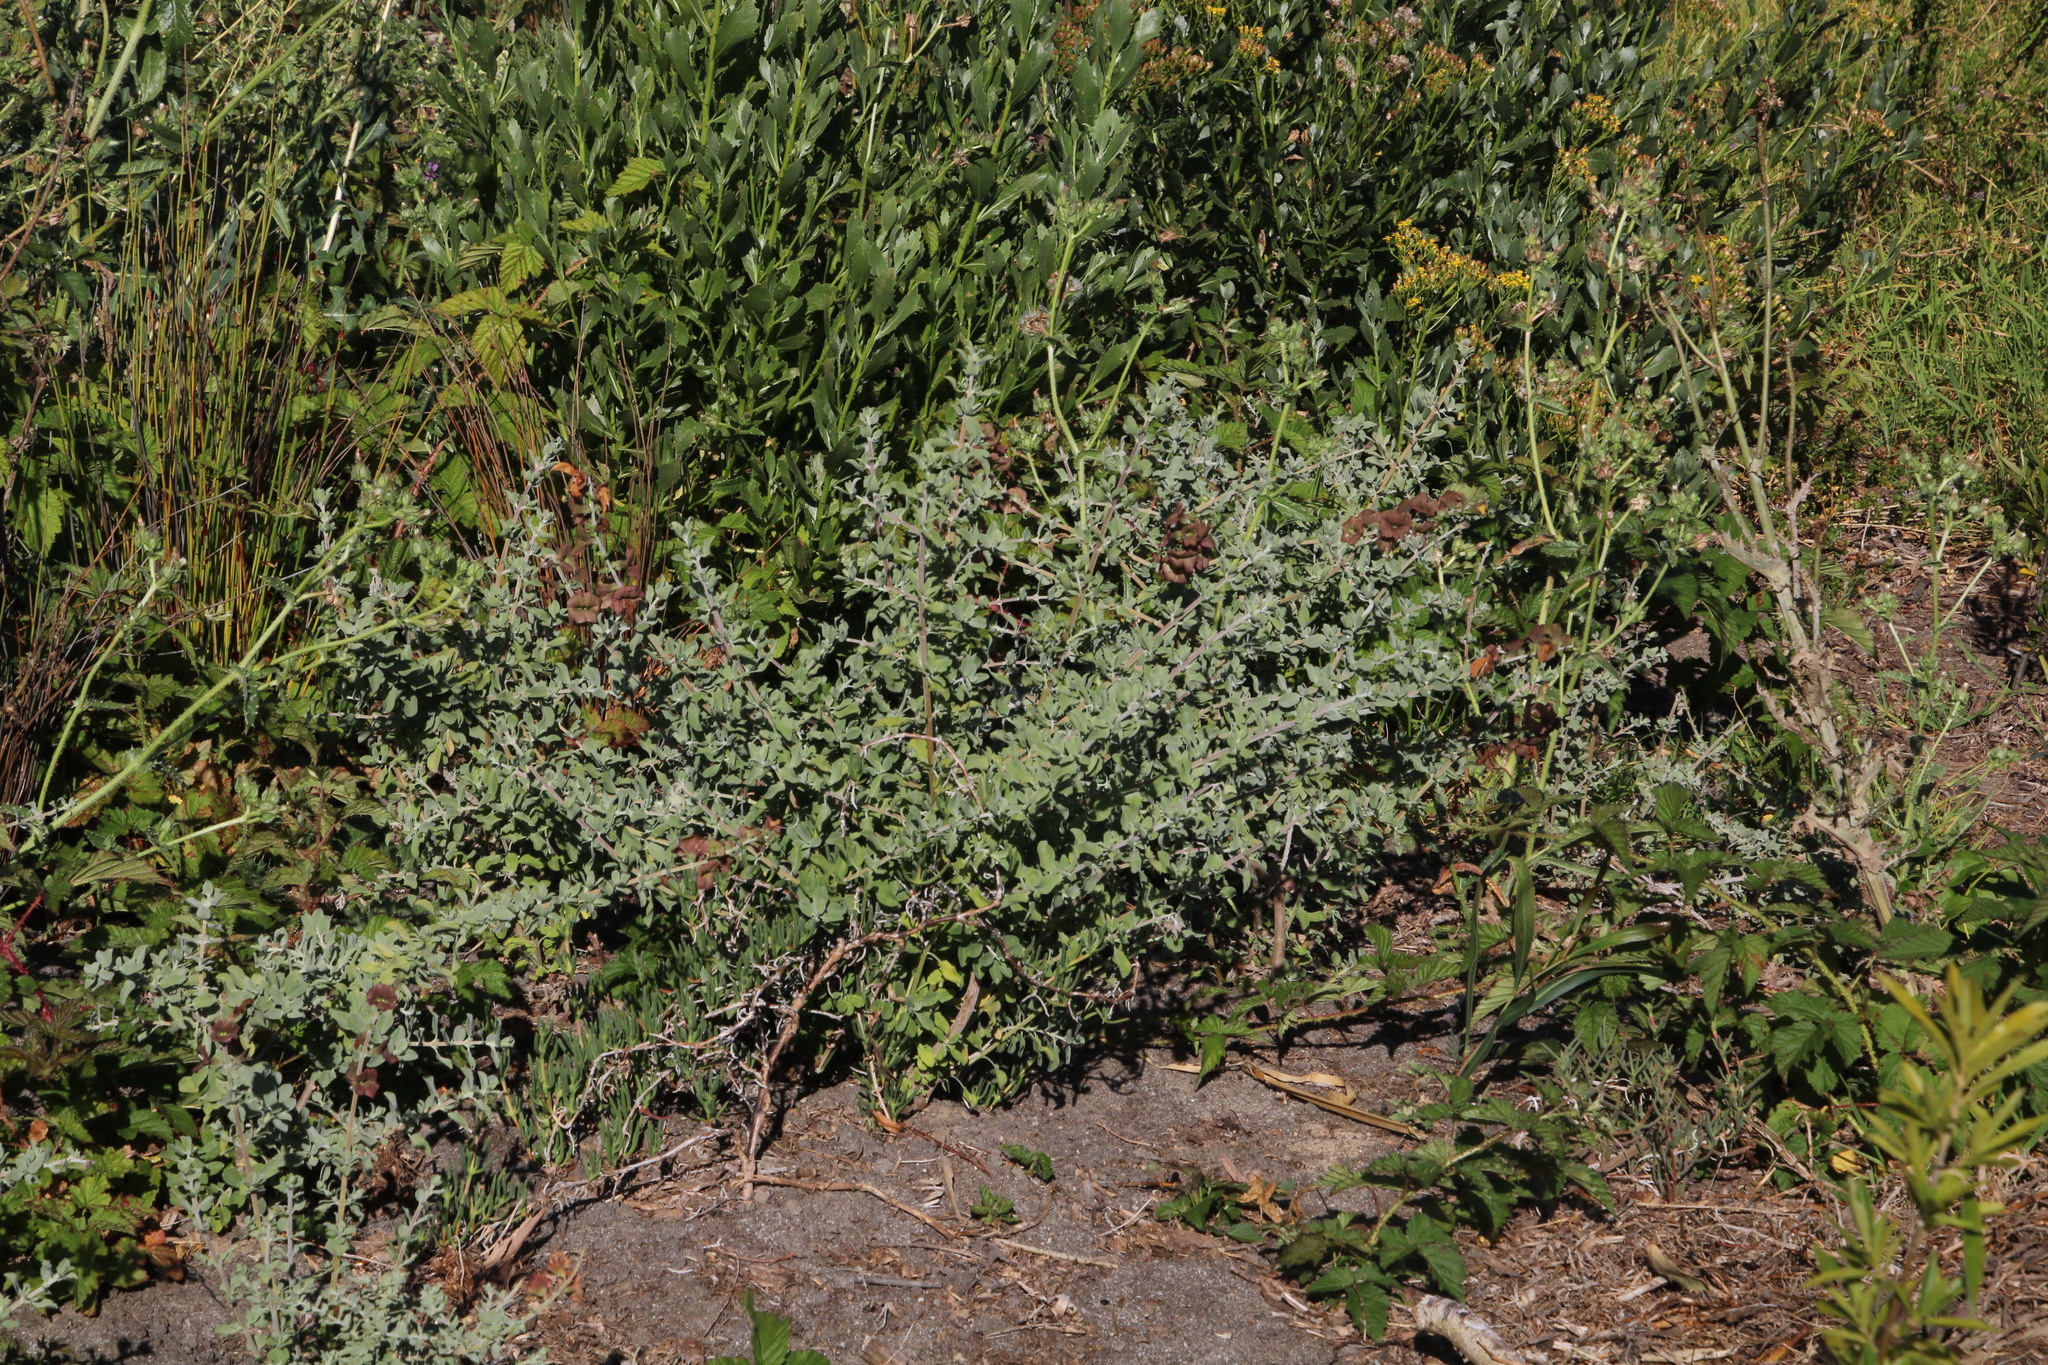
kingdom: Plantae
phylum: Tracheophyta
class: Magnoliopsida
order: Lamiales
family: Lamiaceae
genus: Salvia
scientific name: Salvia aurea
